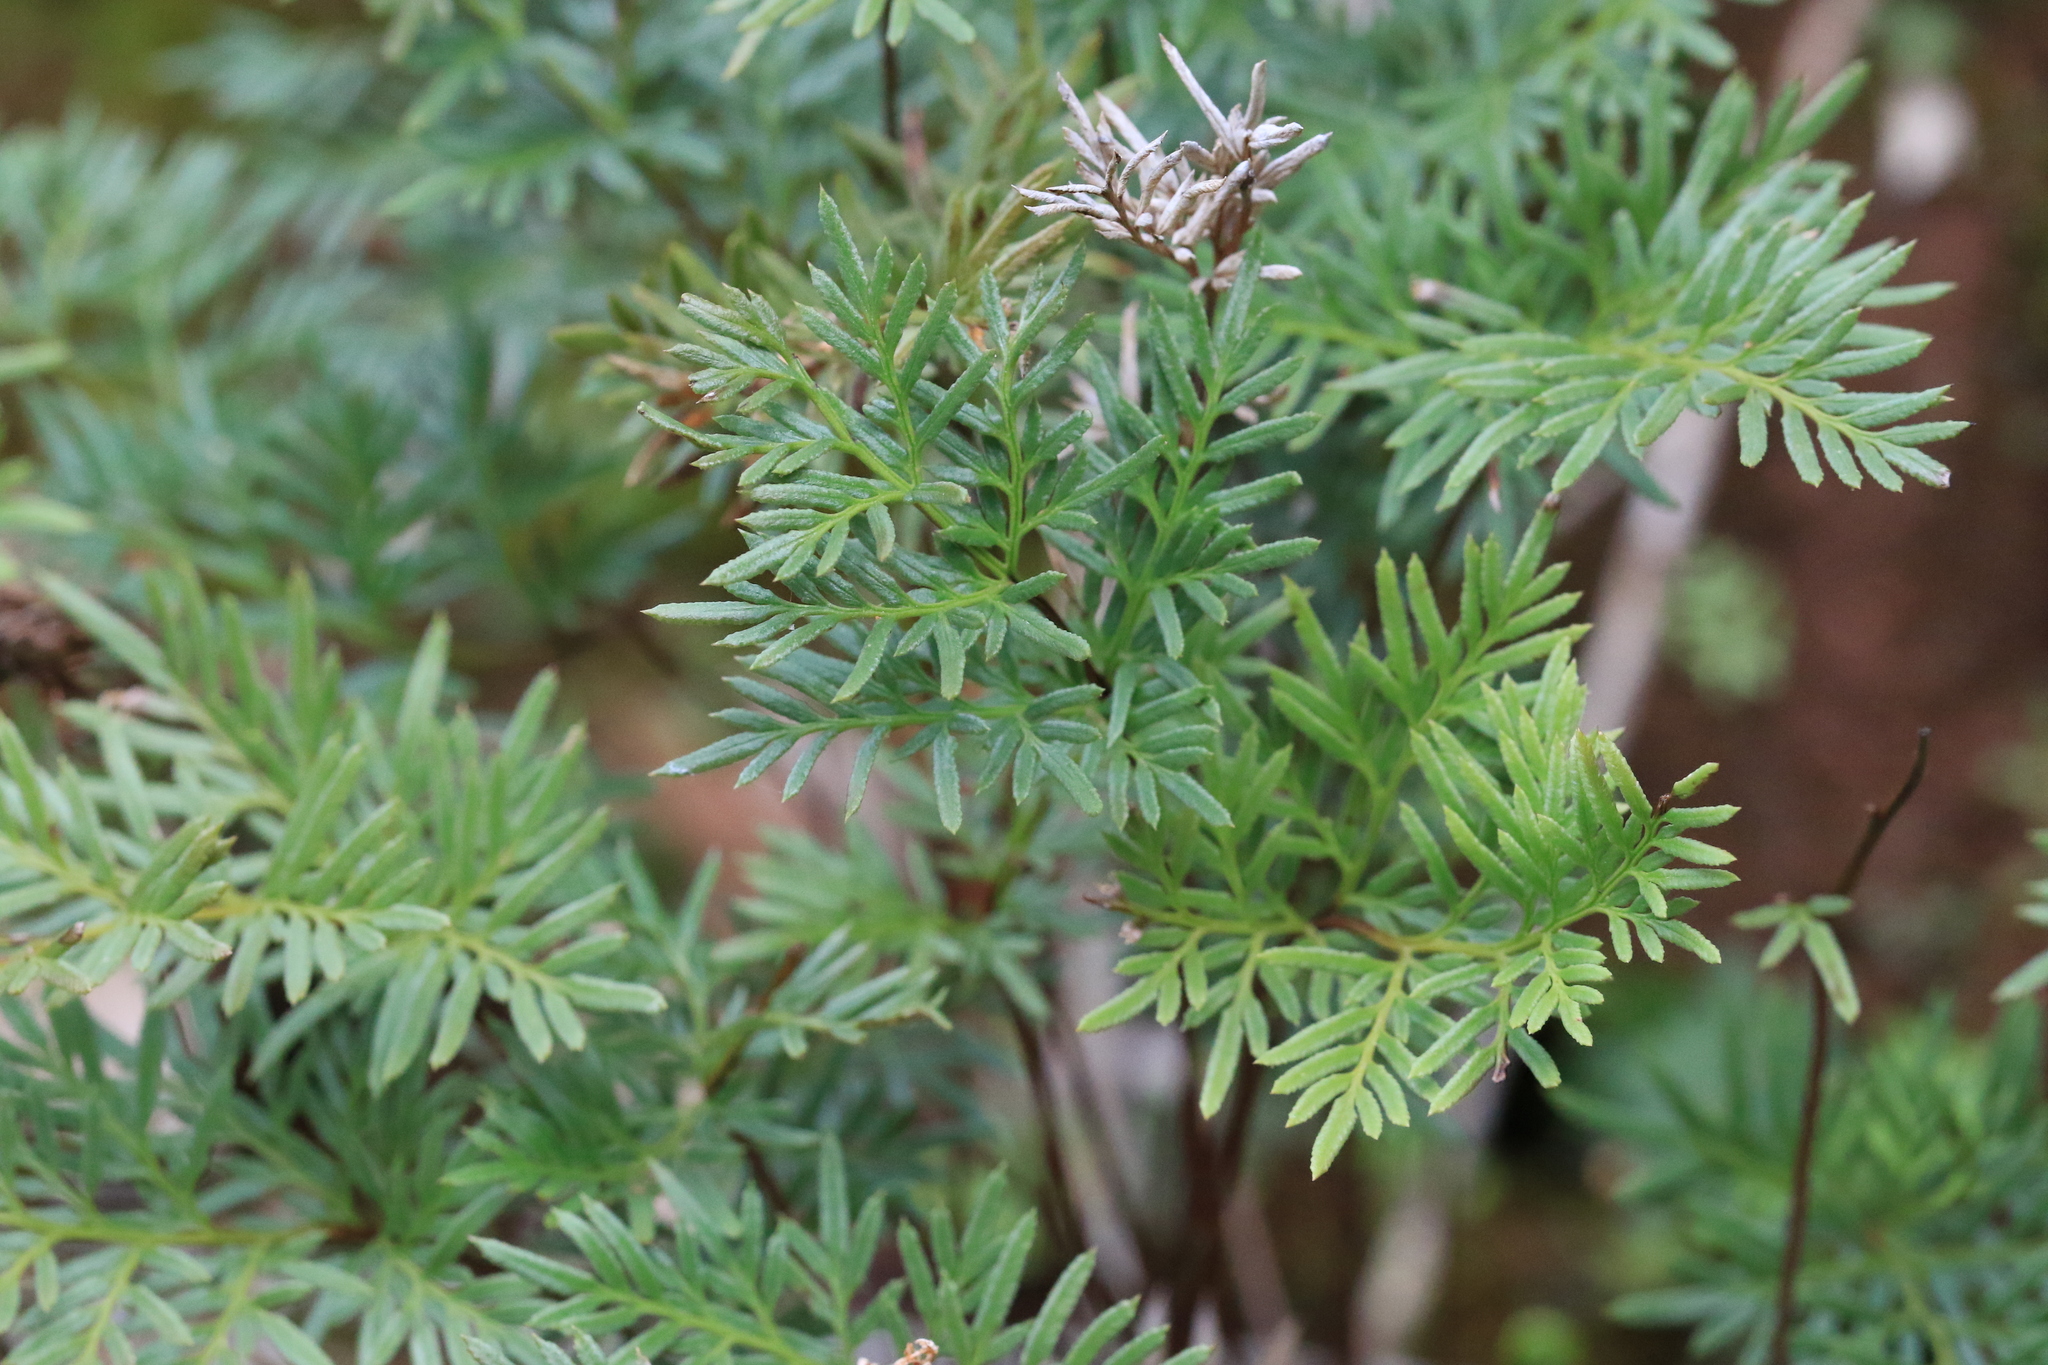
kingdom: Plantae
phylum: Tracheophyta
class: Polypodiopsida
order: Polypodiales
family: Pteridaceae
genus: Aspidotis
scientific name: Aspidotis densa
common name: Indian's dream
